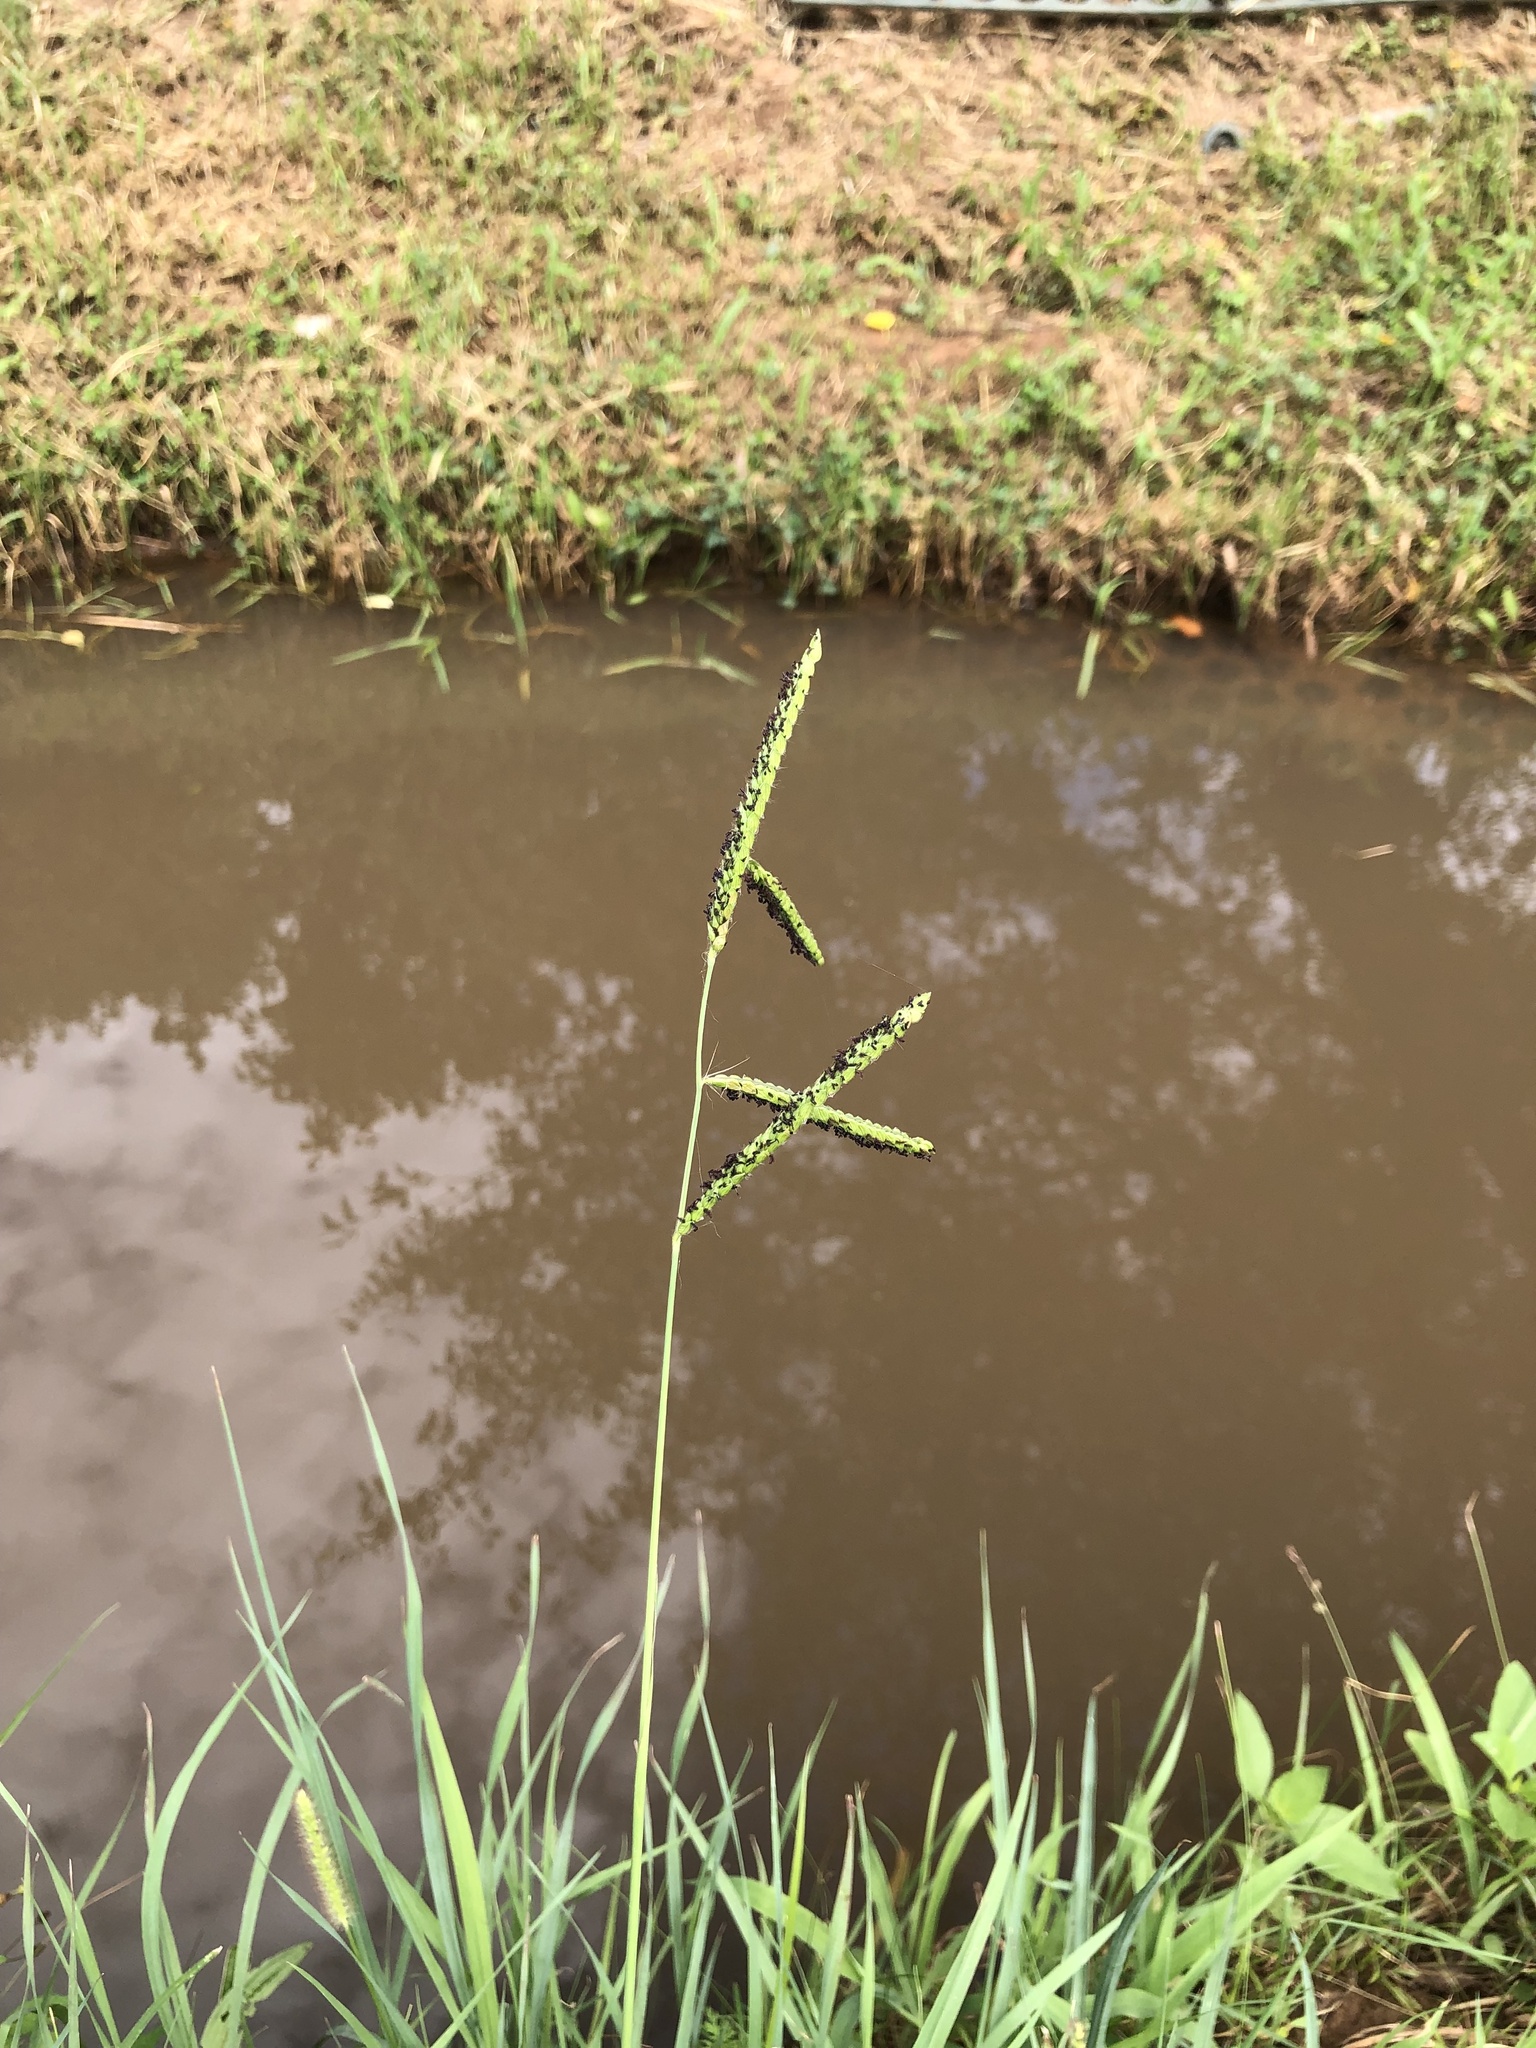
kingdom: Plantae
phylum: Tracheophyta
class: Liliopsida
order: Poales
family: Poaceae
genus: Paspalum
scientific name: Paspalum dilatatum
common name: Dallisgrass
